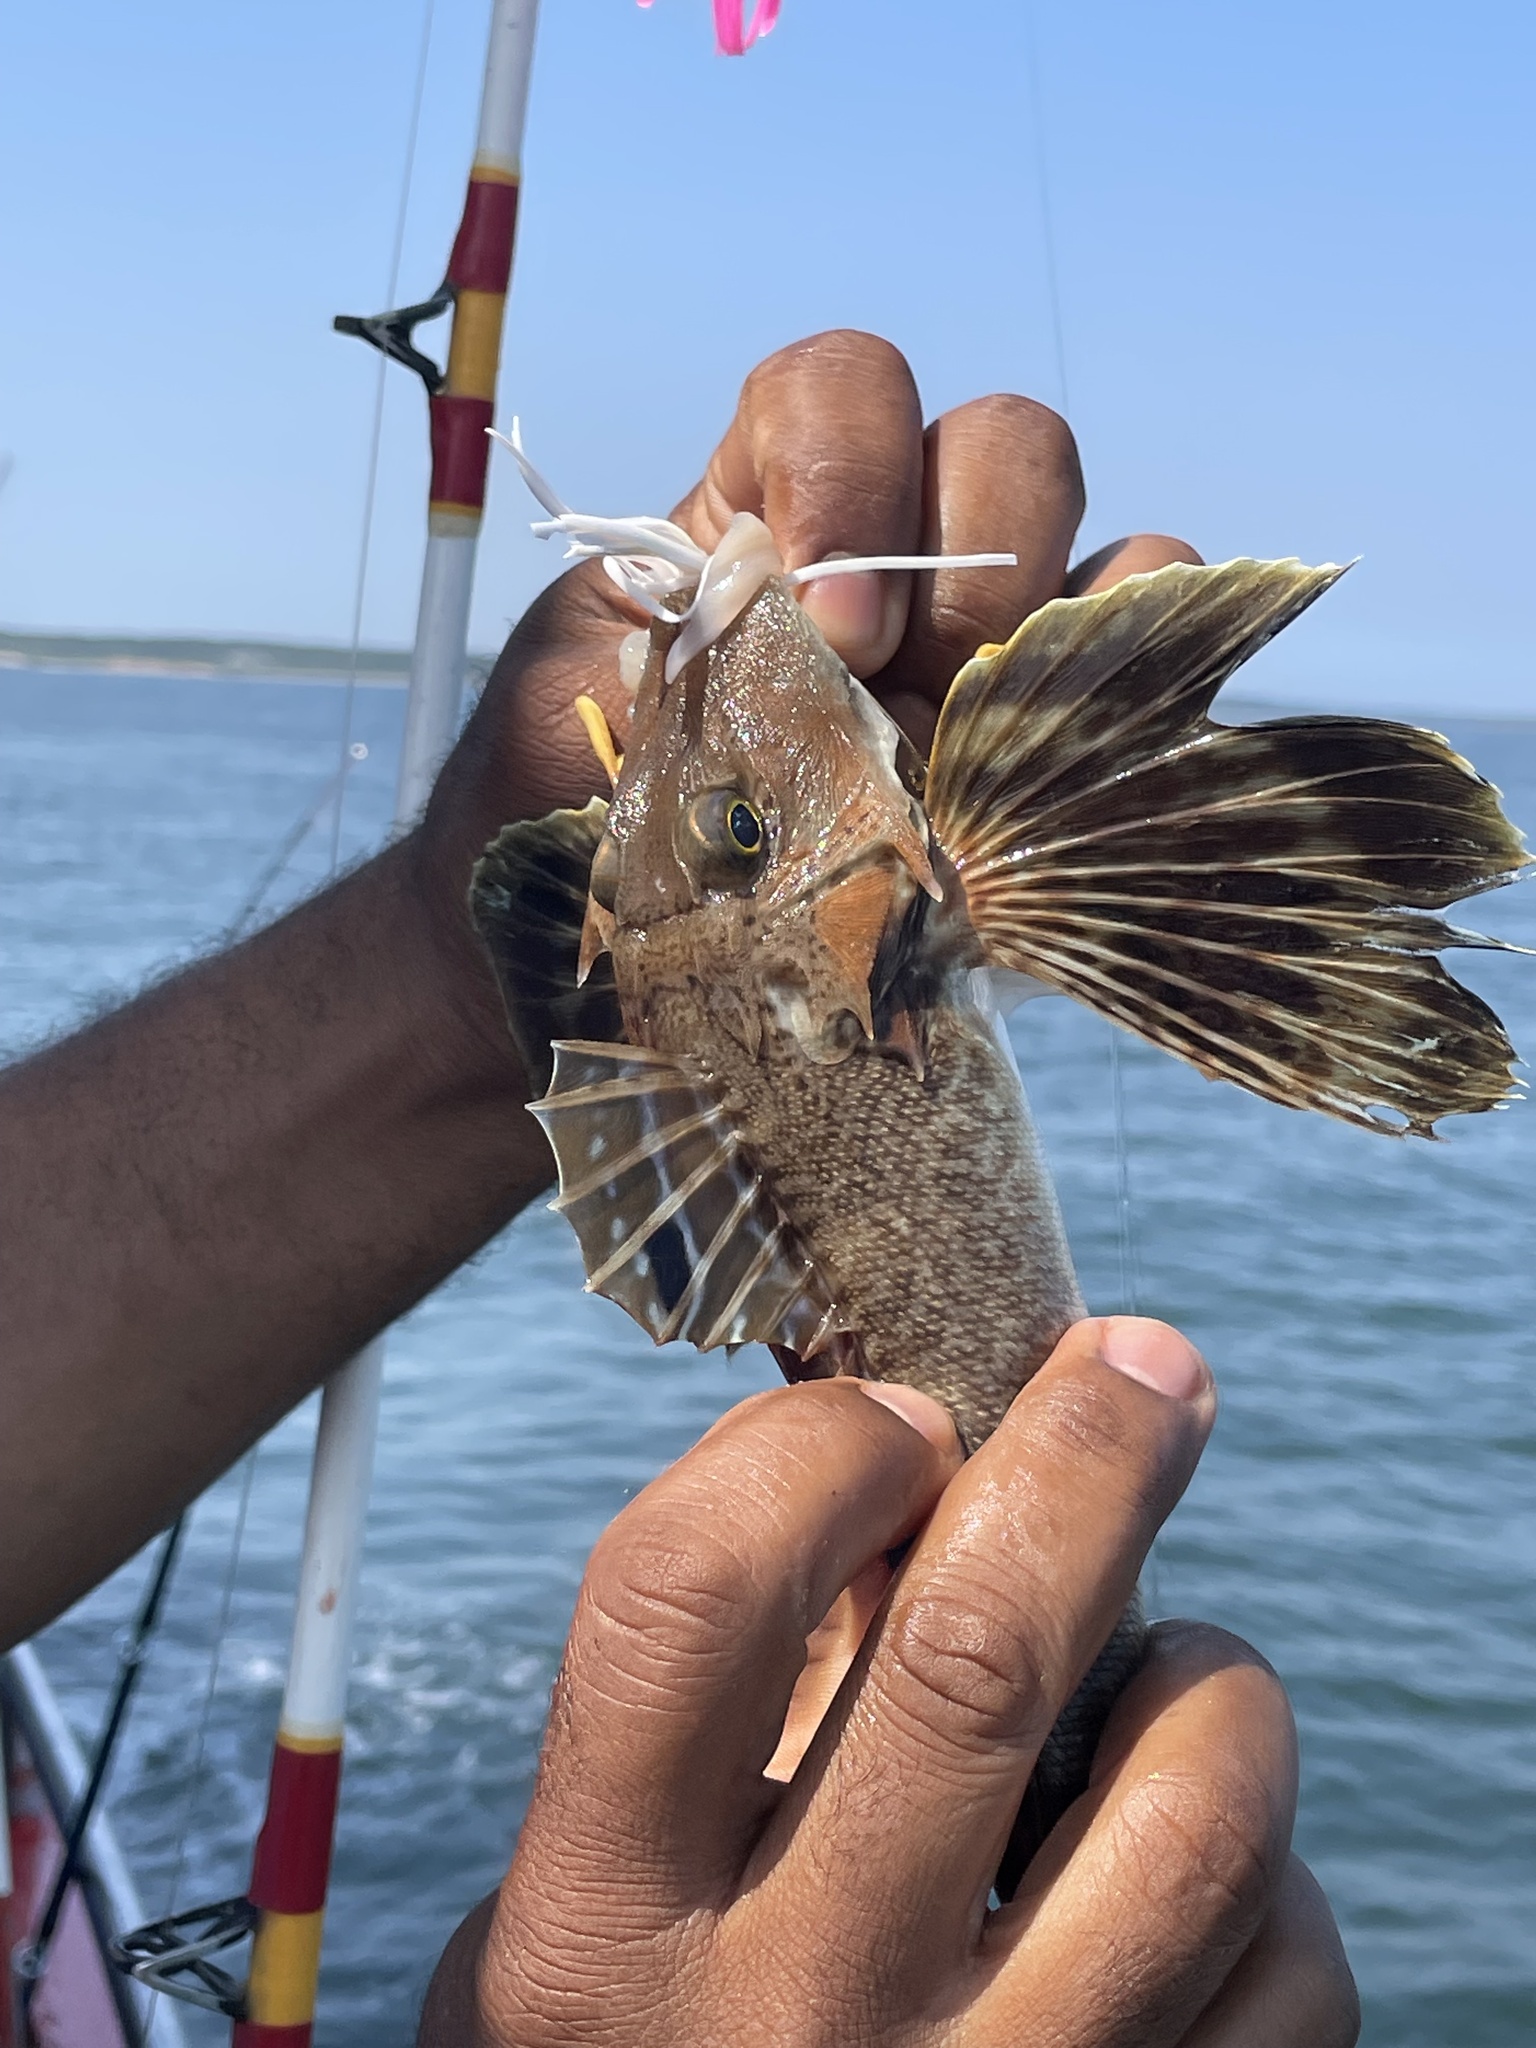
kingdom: Animalia
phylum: Chordata
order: Scorpaeniformes
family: Triglidae
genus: Prionotus
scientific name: Prionotus carolinus
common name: Northern searobin
